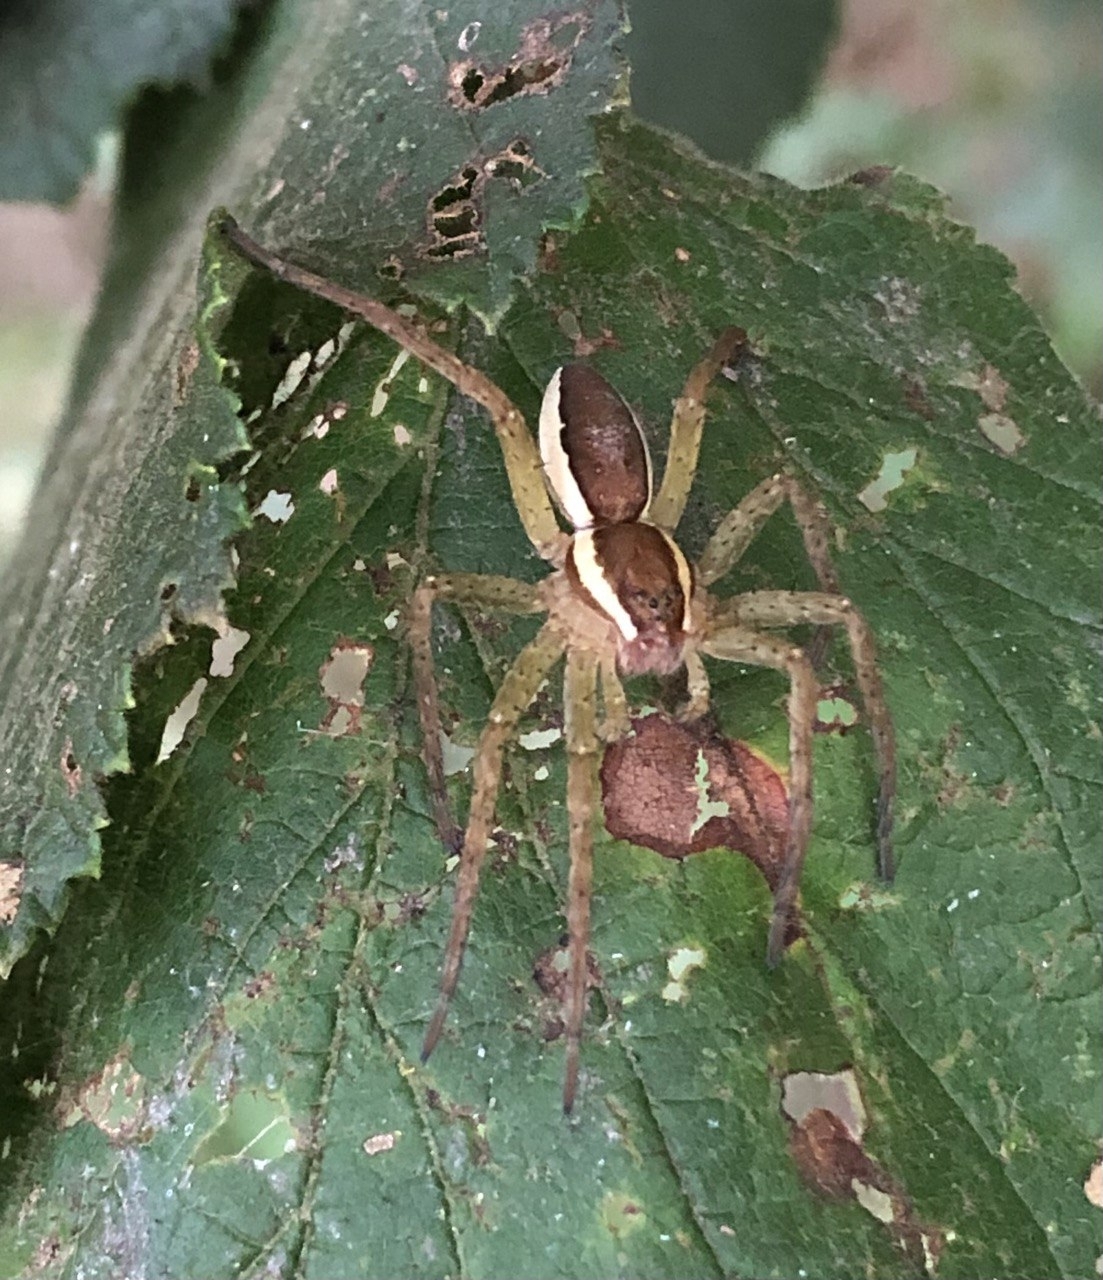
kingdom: Animalia
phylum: Arthropoda
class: Arachnida
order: Araneae
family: Pisauridae
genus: Dolomedes
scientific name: Dolomedes fimbriatus
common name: Raft spider
